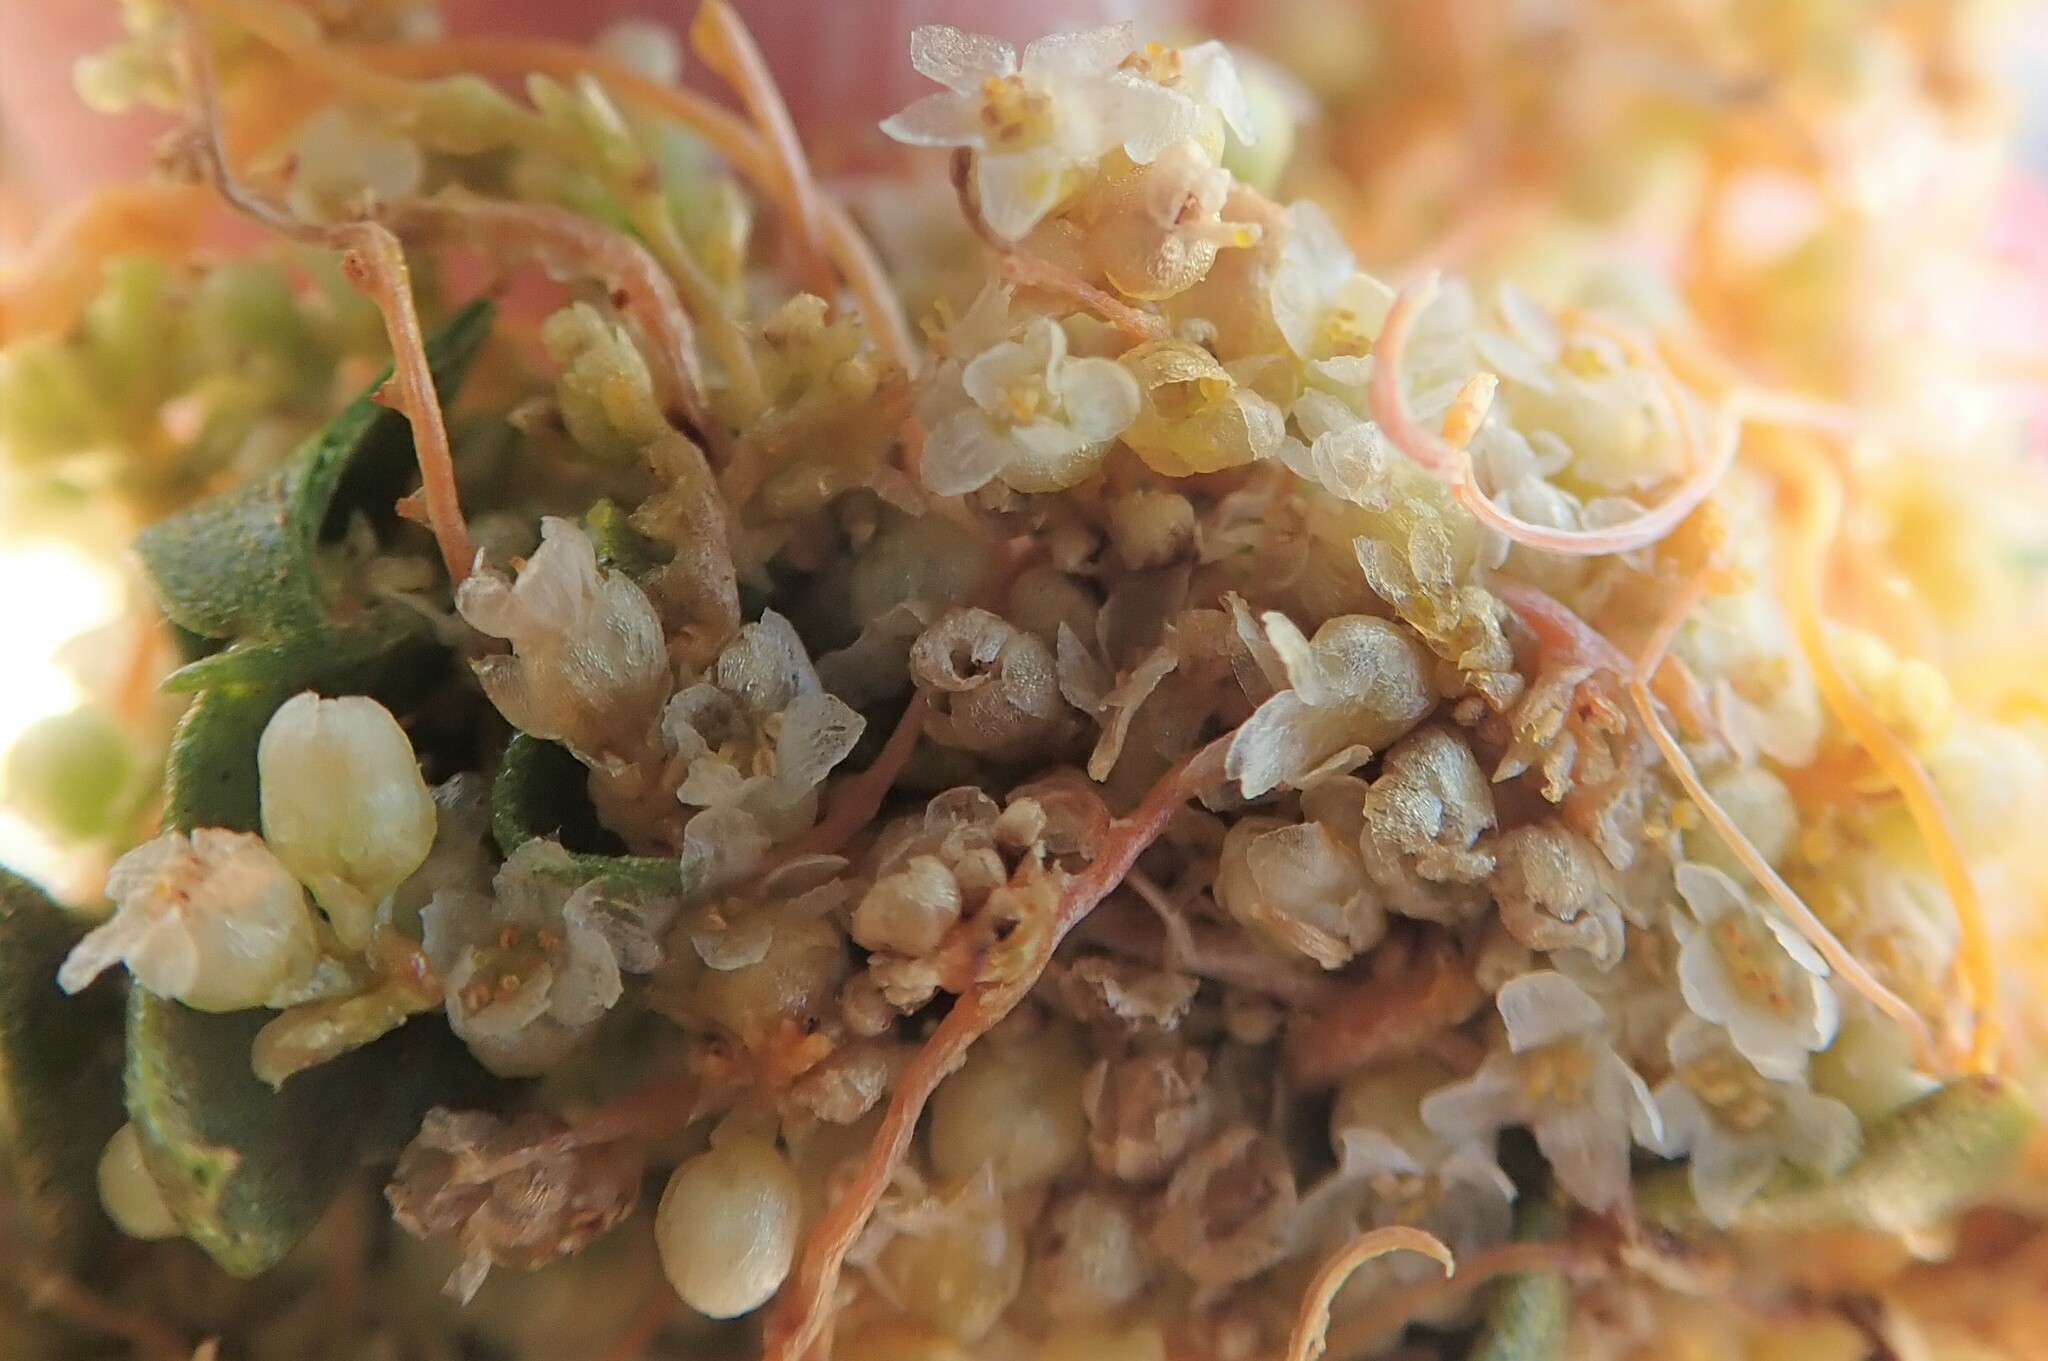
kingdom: Plantae
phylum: Tracheophyta
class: Magnoliopsida
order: Solanales
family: Convolvulaceae
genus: Cuscuta
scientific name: Cuscuta denticulata
